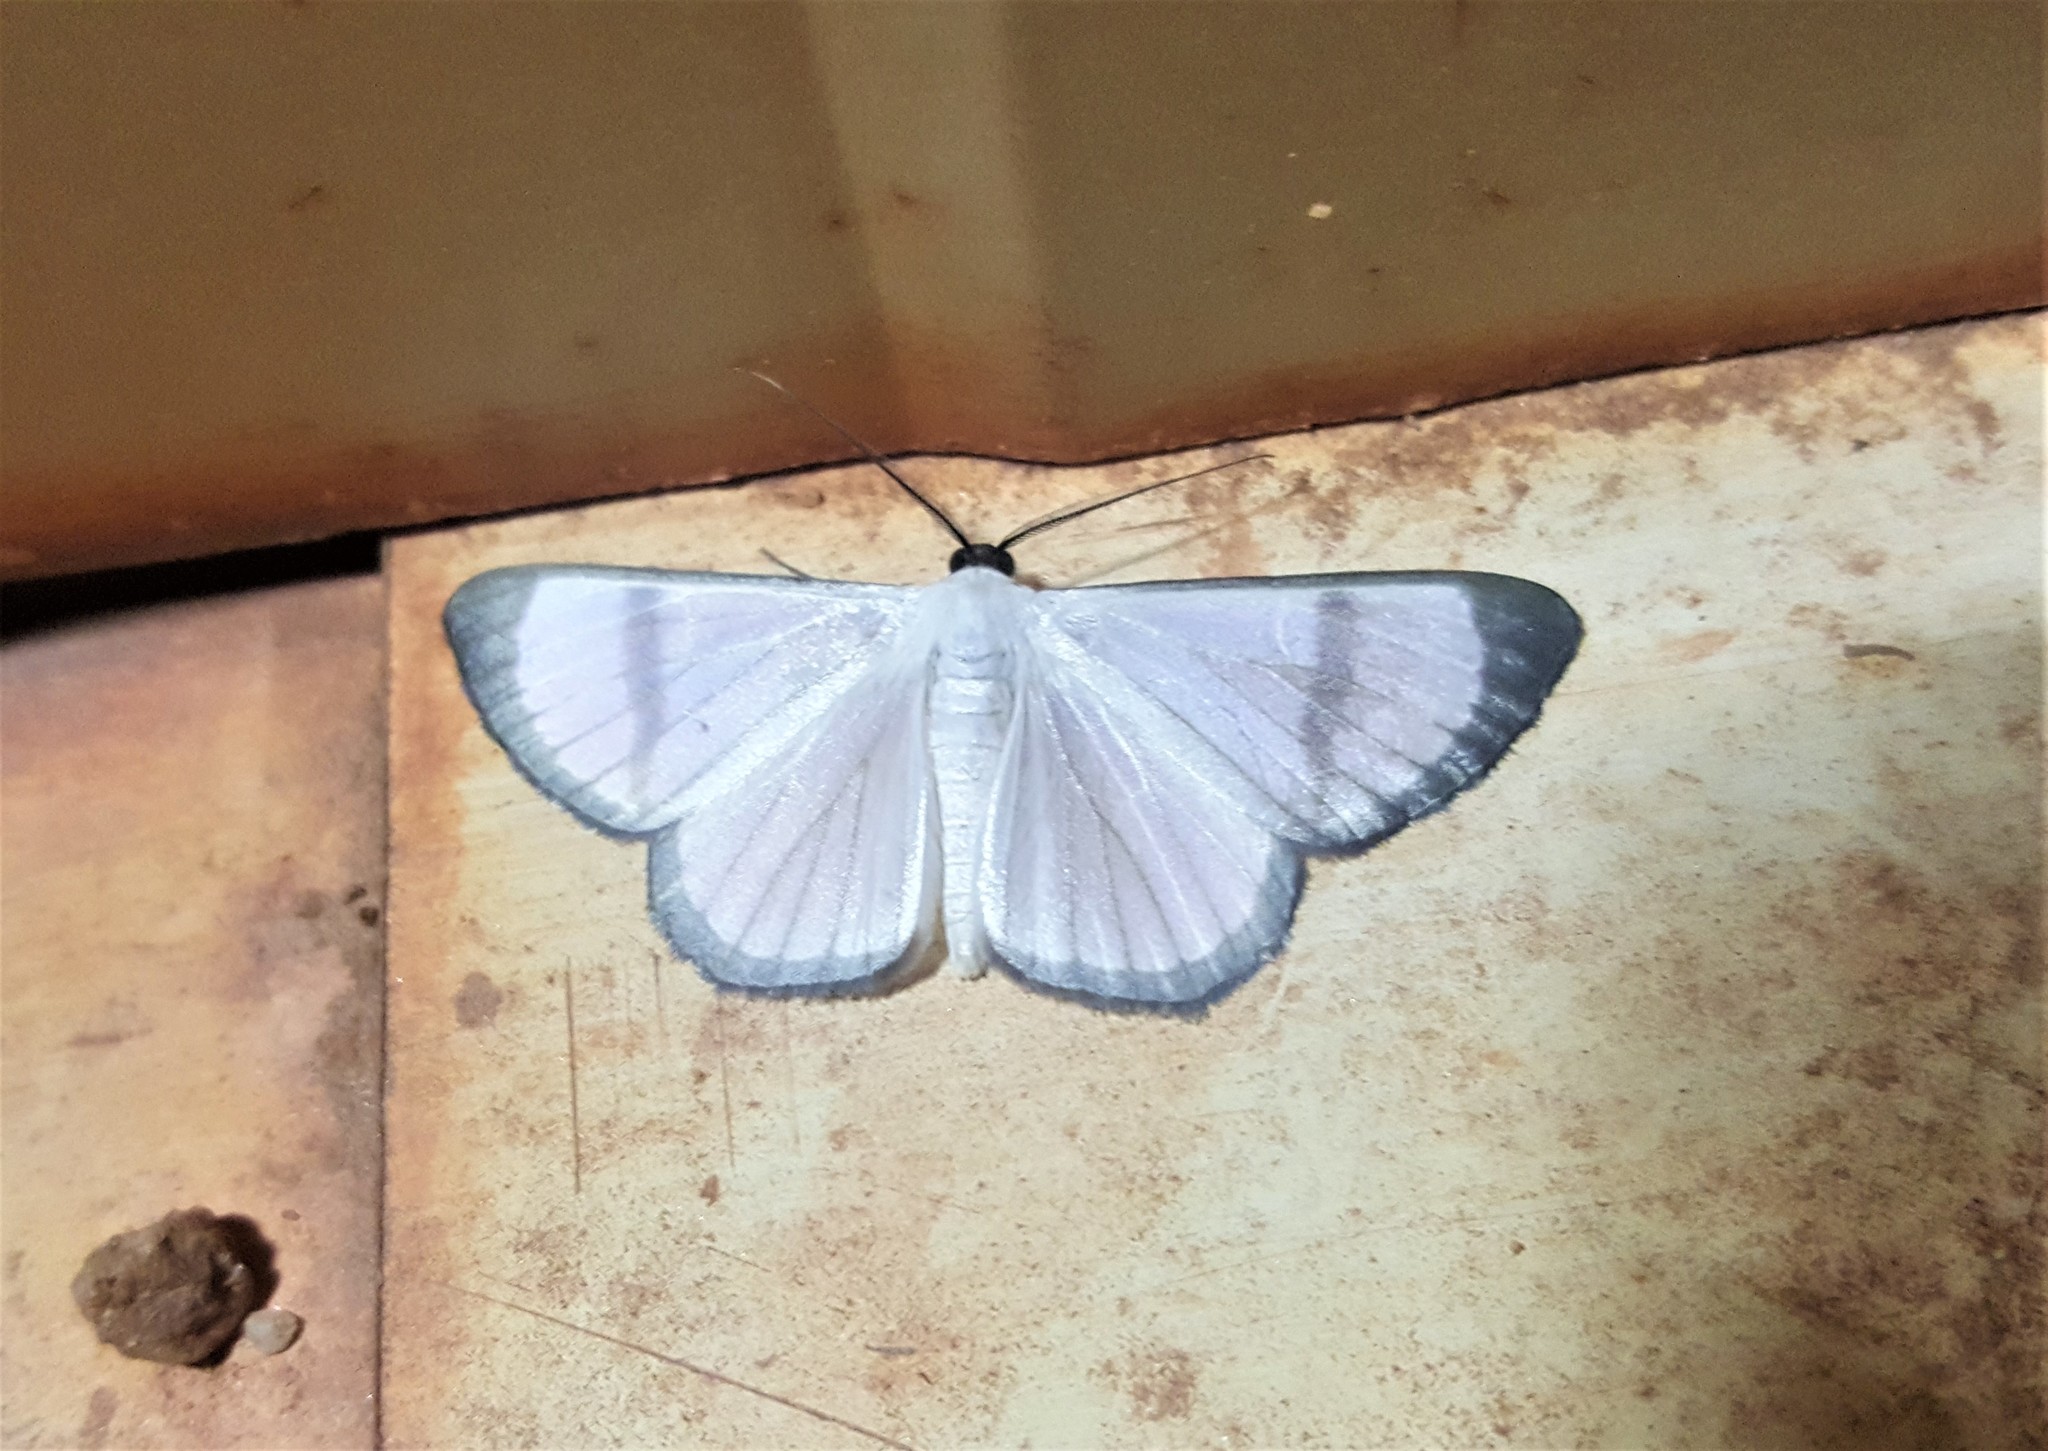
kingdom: Animalia
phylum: Arthropoda
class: Insecta
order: Lepidoptera
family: Geometridae
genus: Perigramma
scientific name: Perigramma albivena
